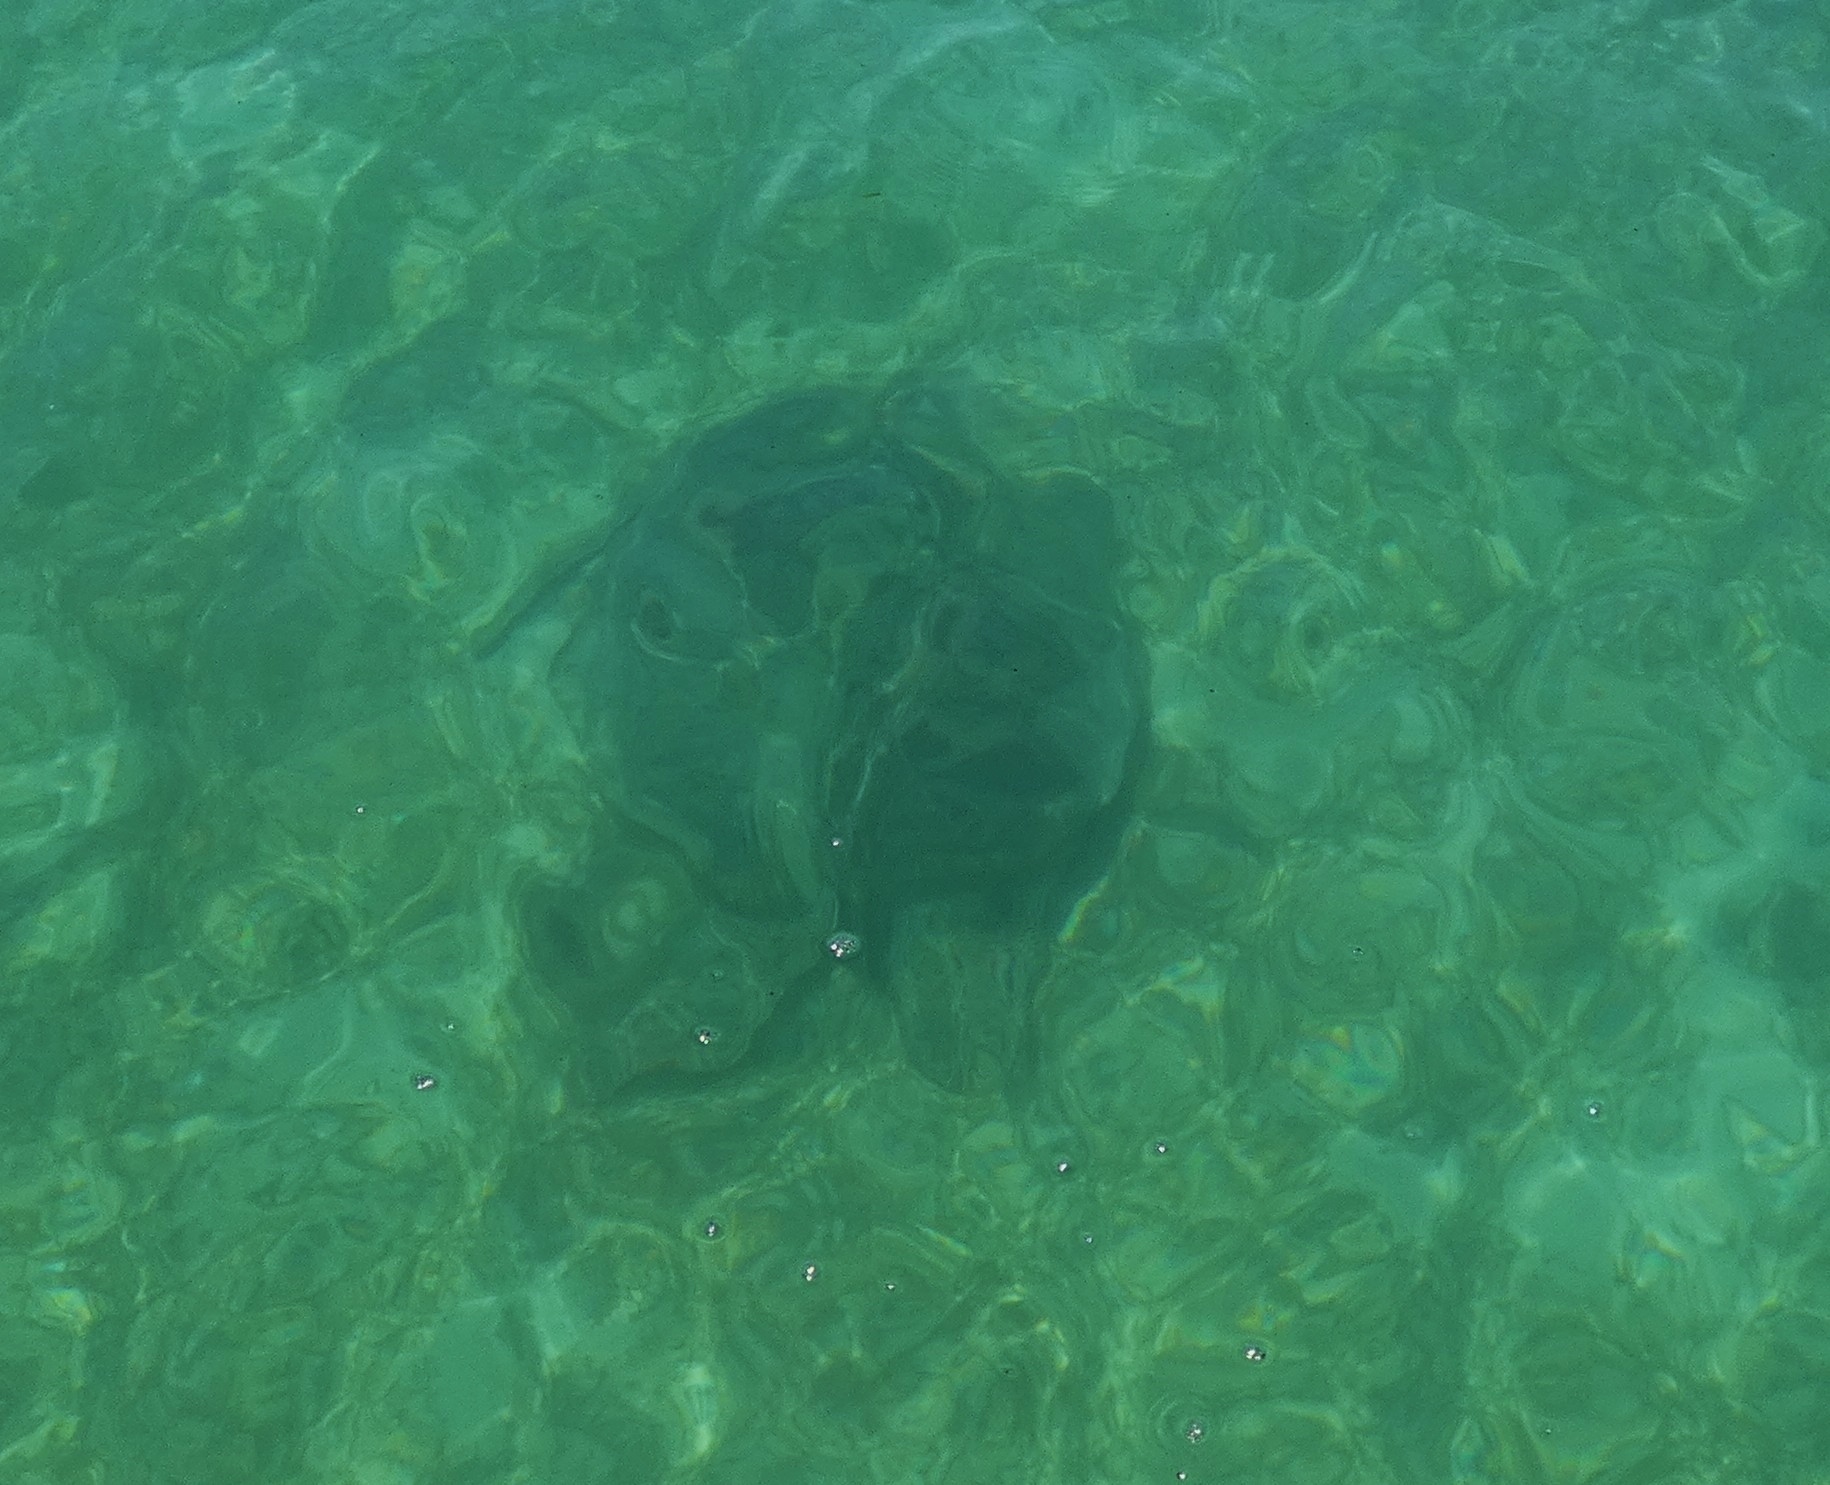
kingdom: Animalia
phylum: Chordata
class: Testudines
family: Cheloniidae
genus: Chelonia
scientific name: Chelonia mydas
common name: Green turtle
